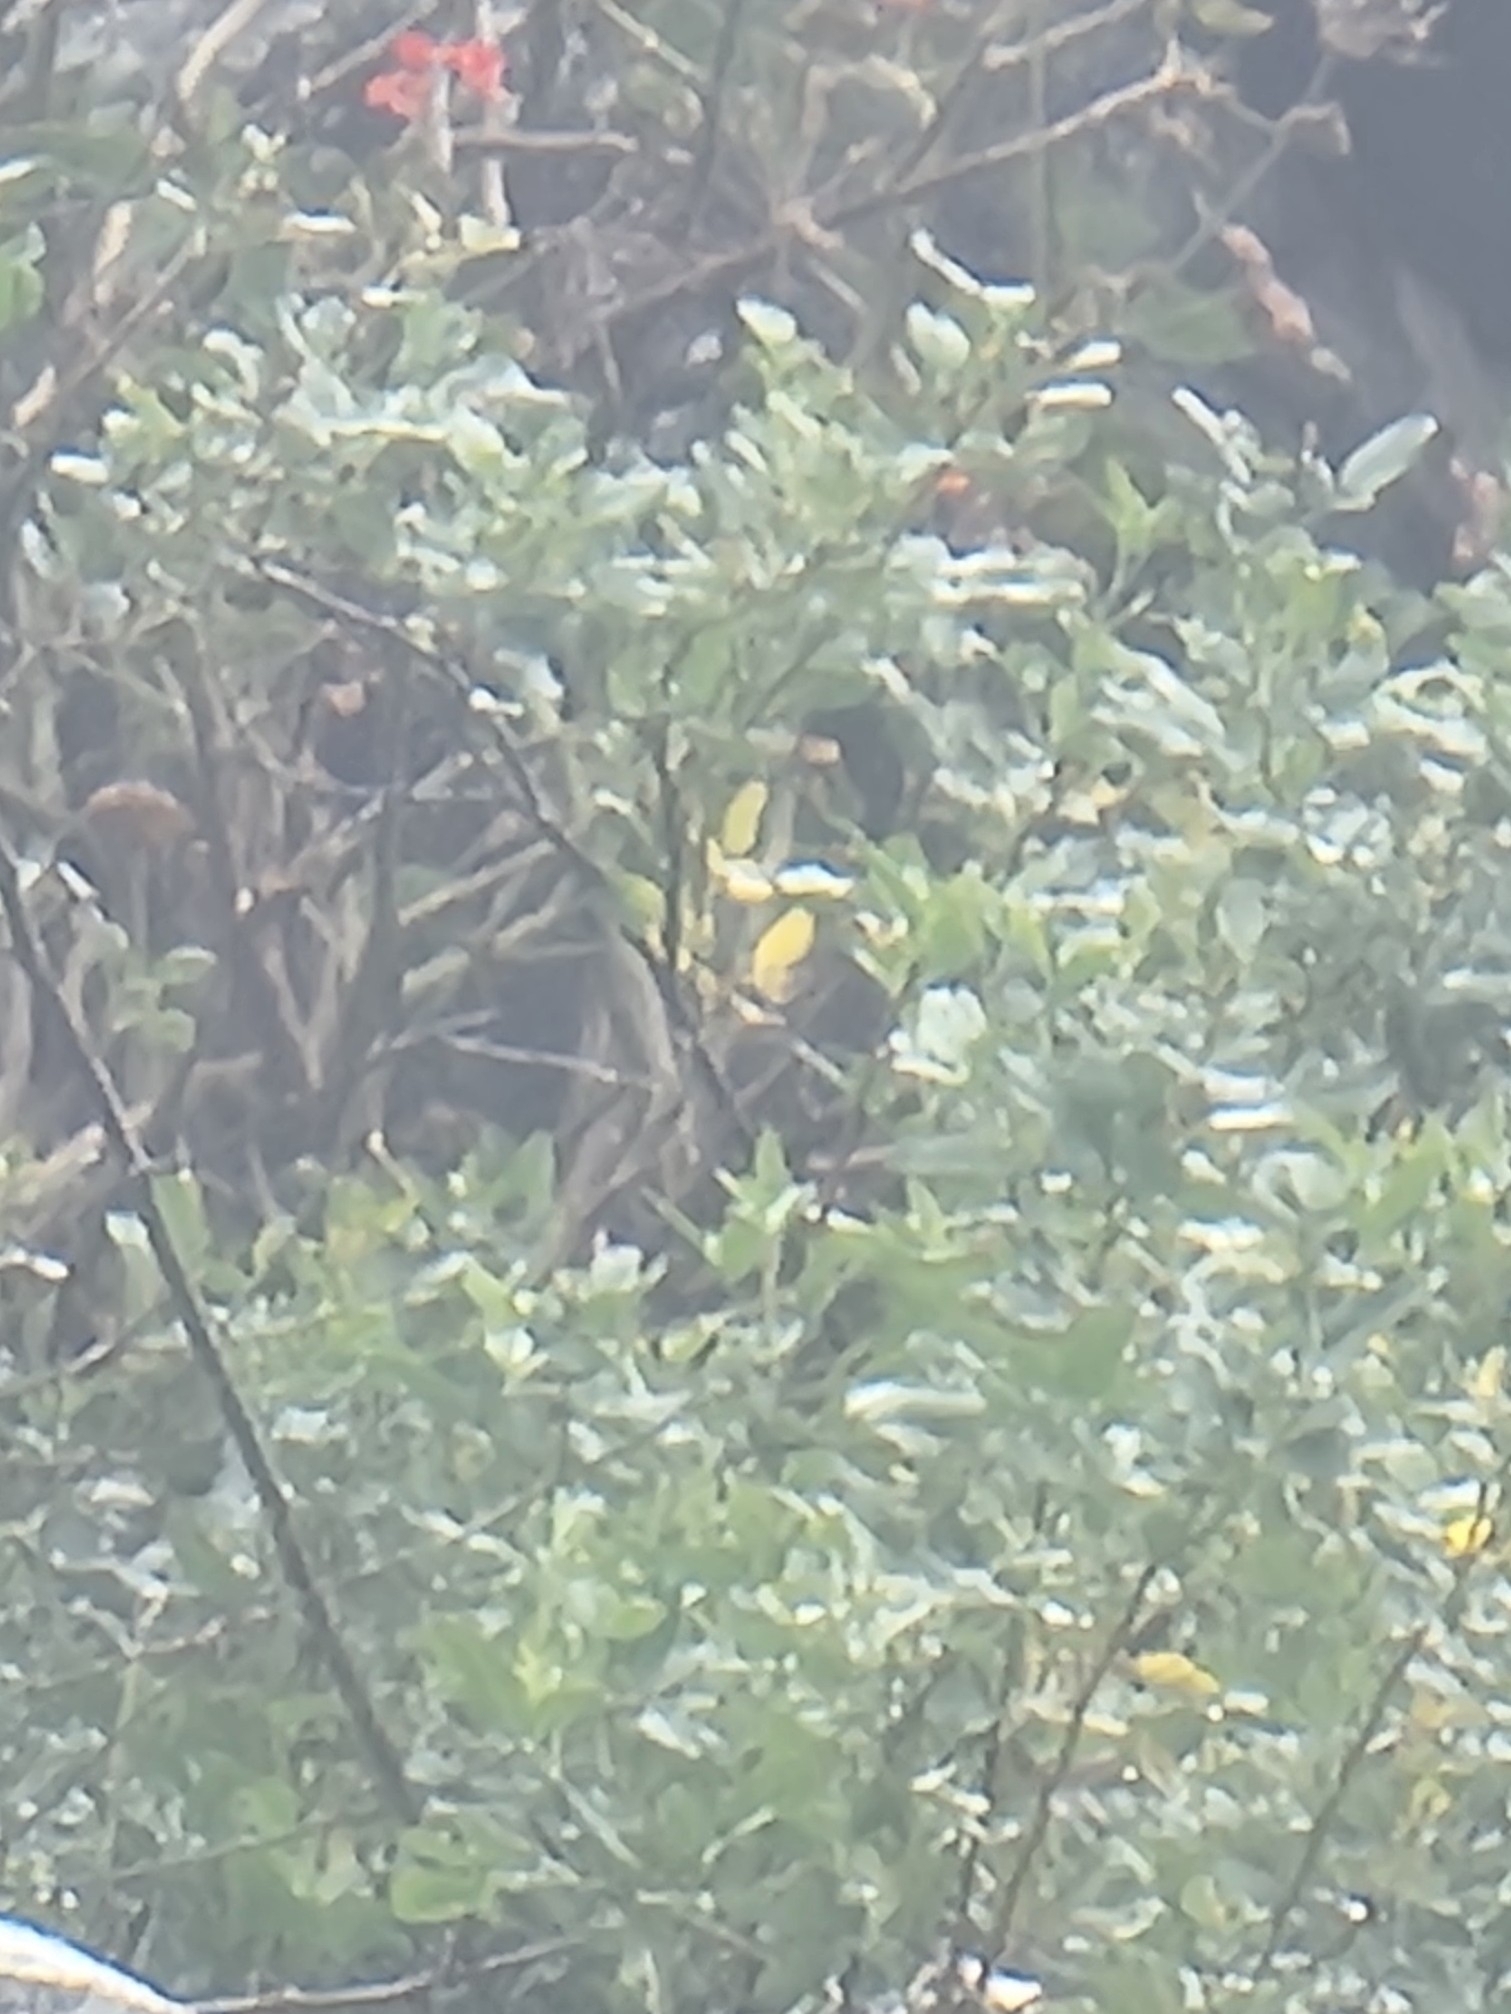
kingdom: Plantae
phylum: Tracheophyta
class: Magnoliopsida
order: Lamiales
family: Oleaceae
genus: Chrysojasminum
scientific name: Chrysojasminum odoratissimum
